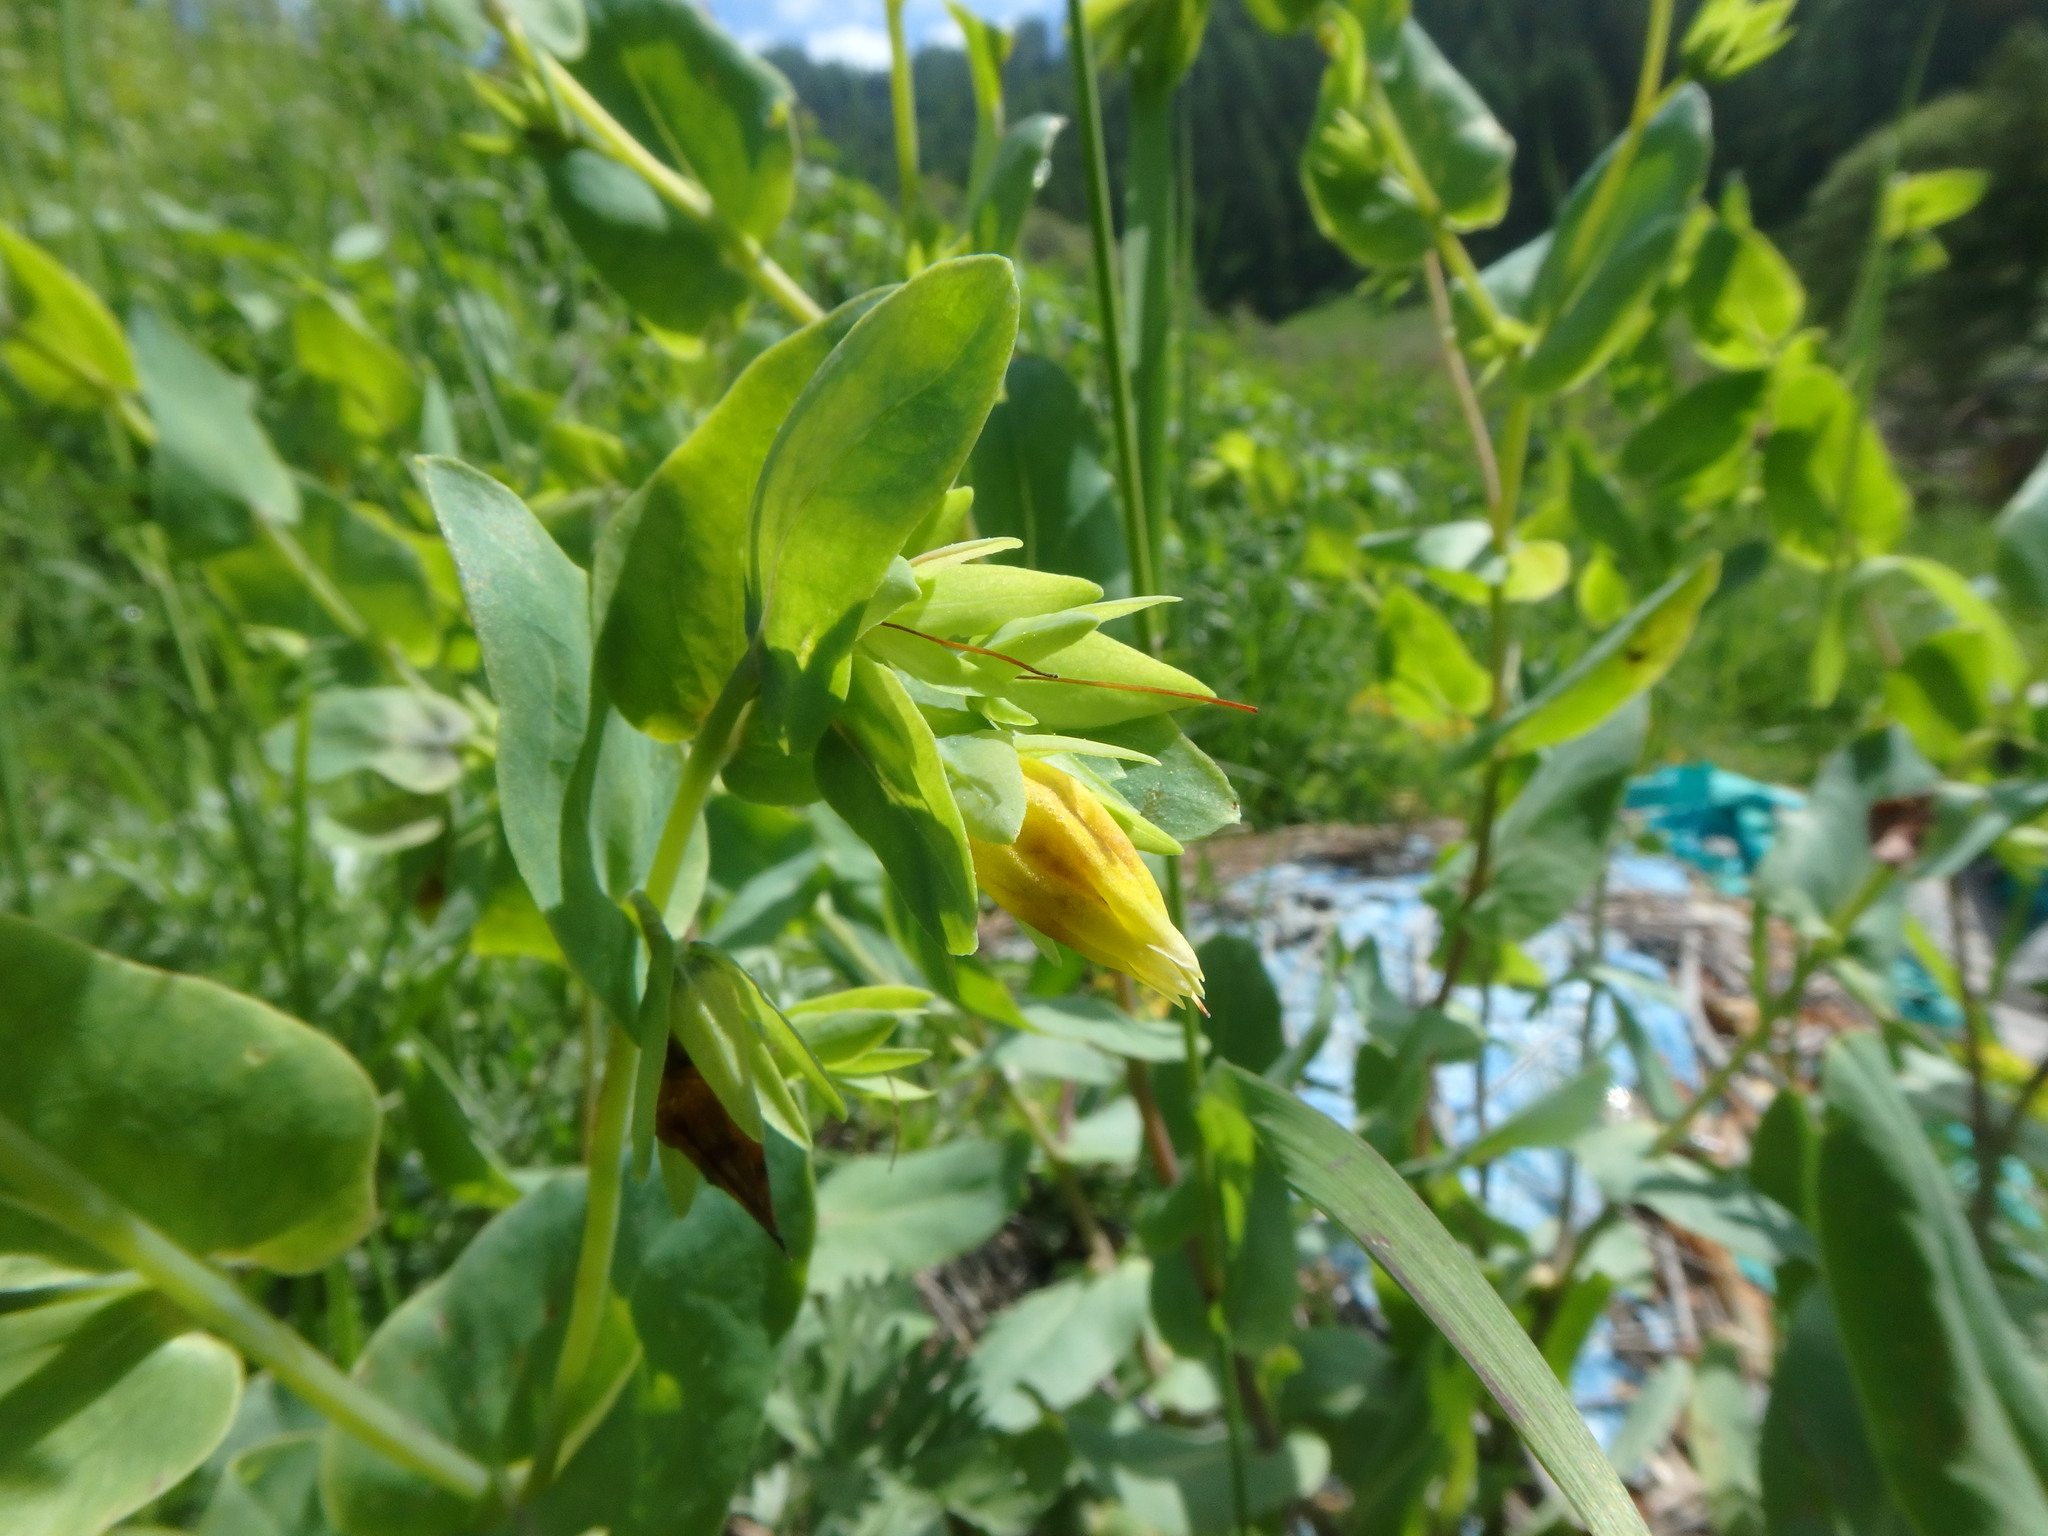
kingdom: Plantae
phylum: Tracheophyta
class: Magnoliopsida
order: Boraginales
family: Boraginaceae
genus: Cerinthe
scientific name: Cerinthe minor
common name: Lesser honeywort
